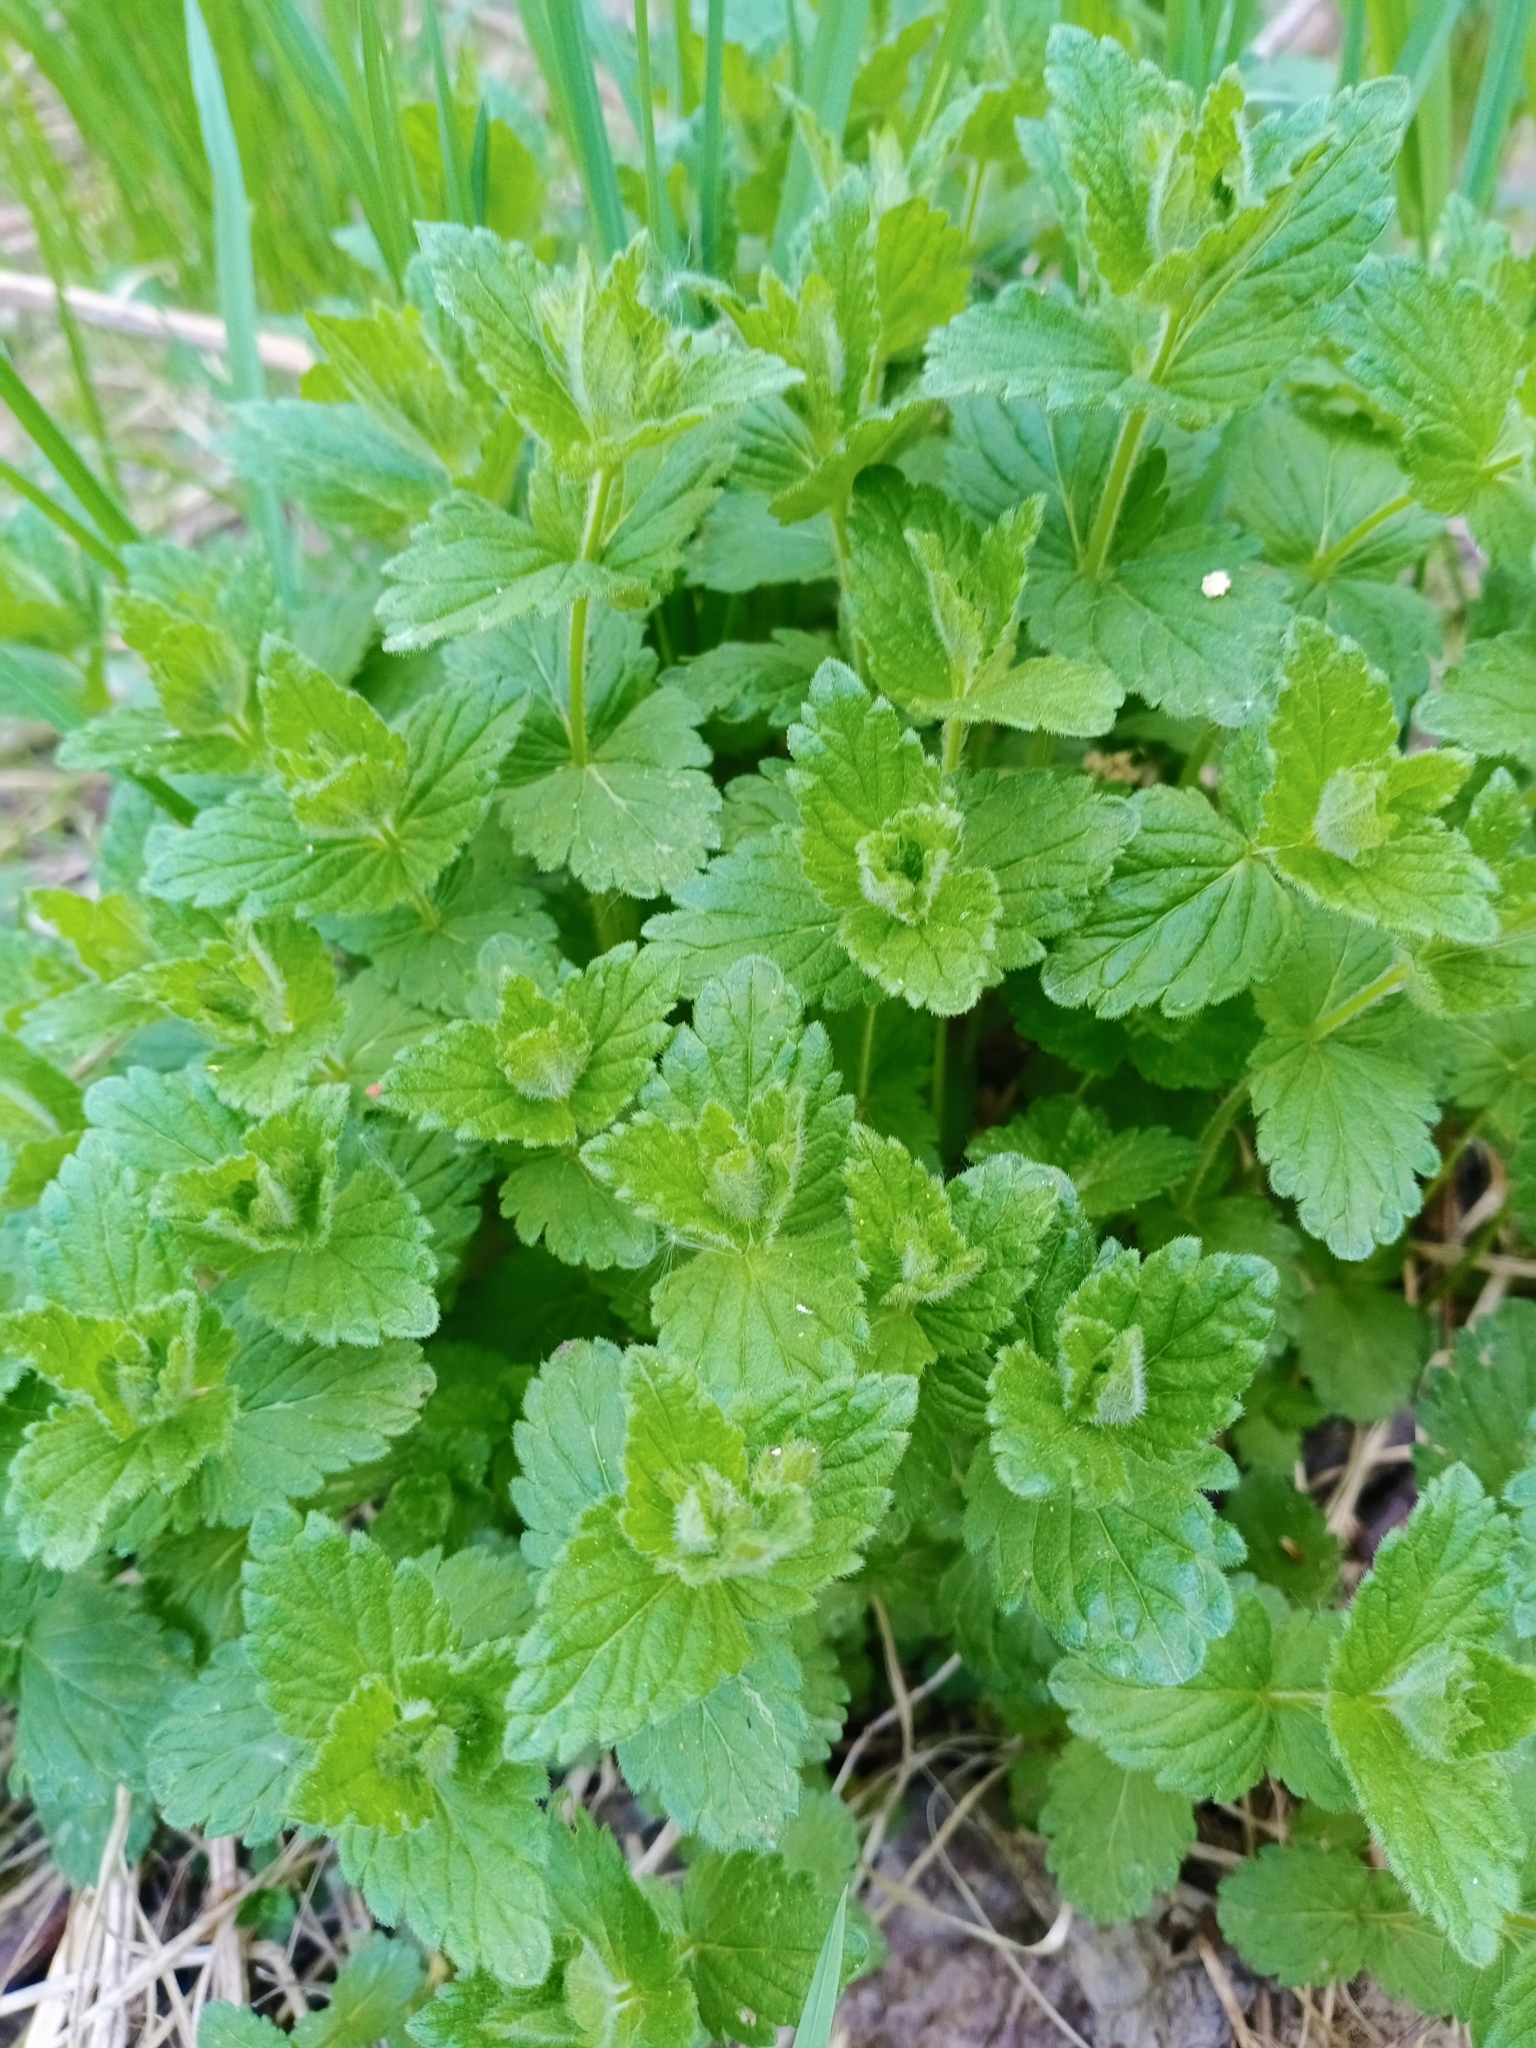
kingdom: Plantae
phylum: Tracheophyta
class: Magnoliopsida
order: Lamiales
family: Plantaginaceae
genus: Veronica
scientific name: Veronica chamaedrys
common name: Germander speedwell
